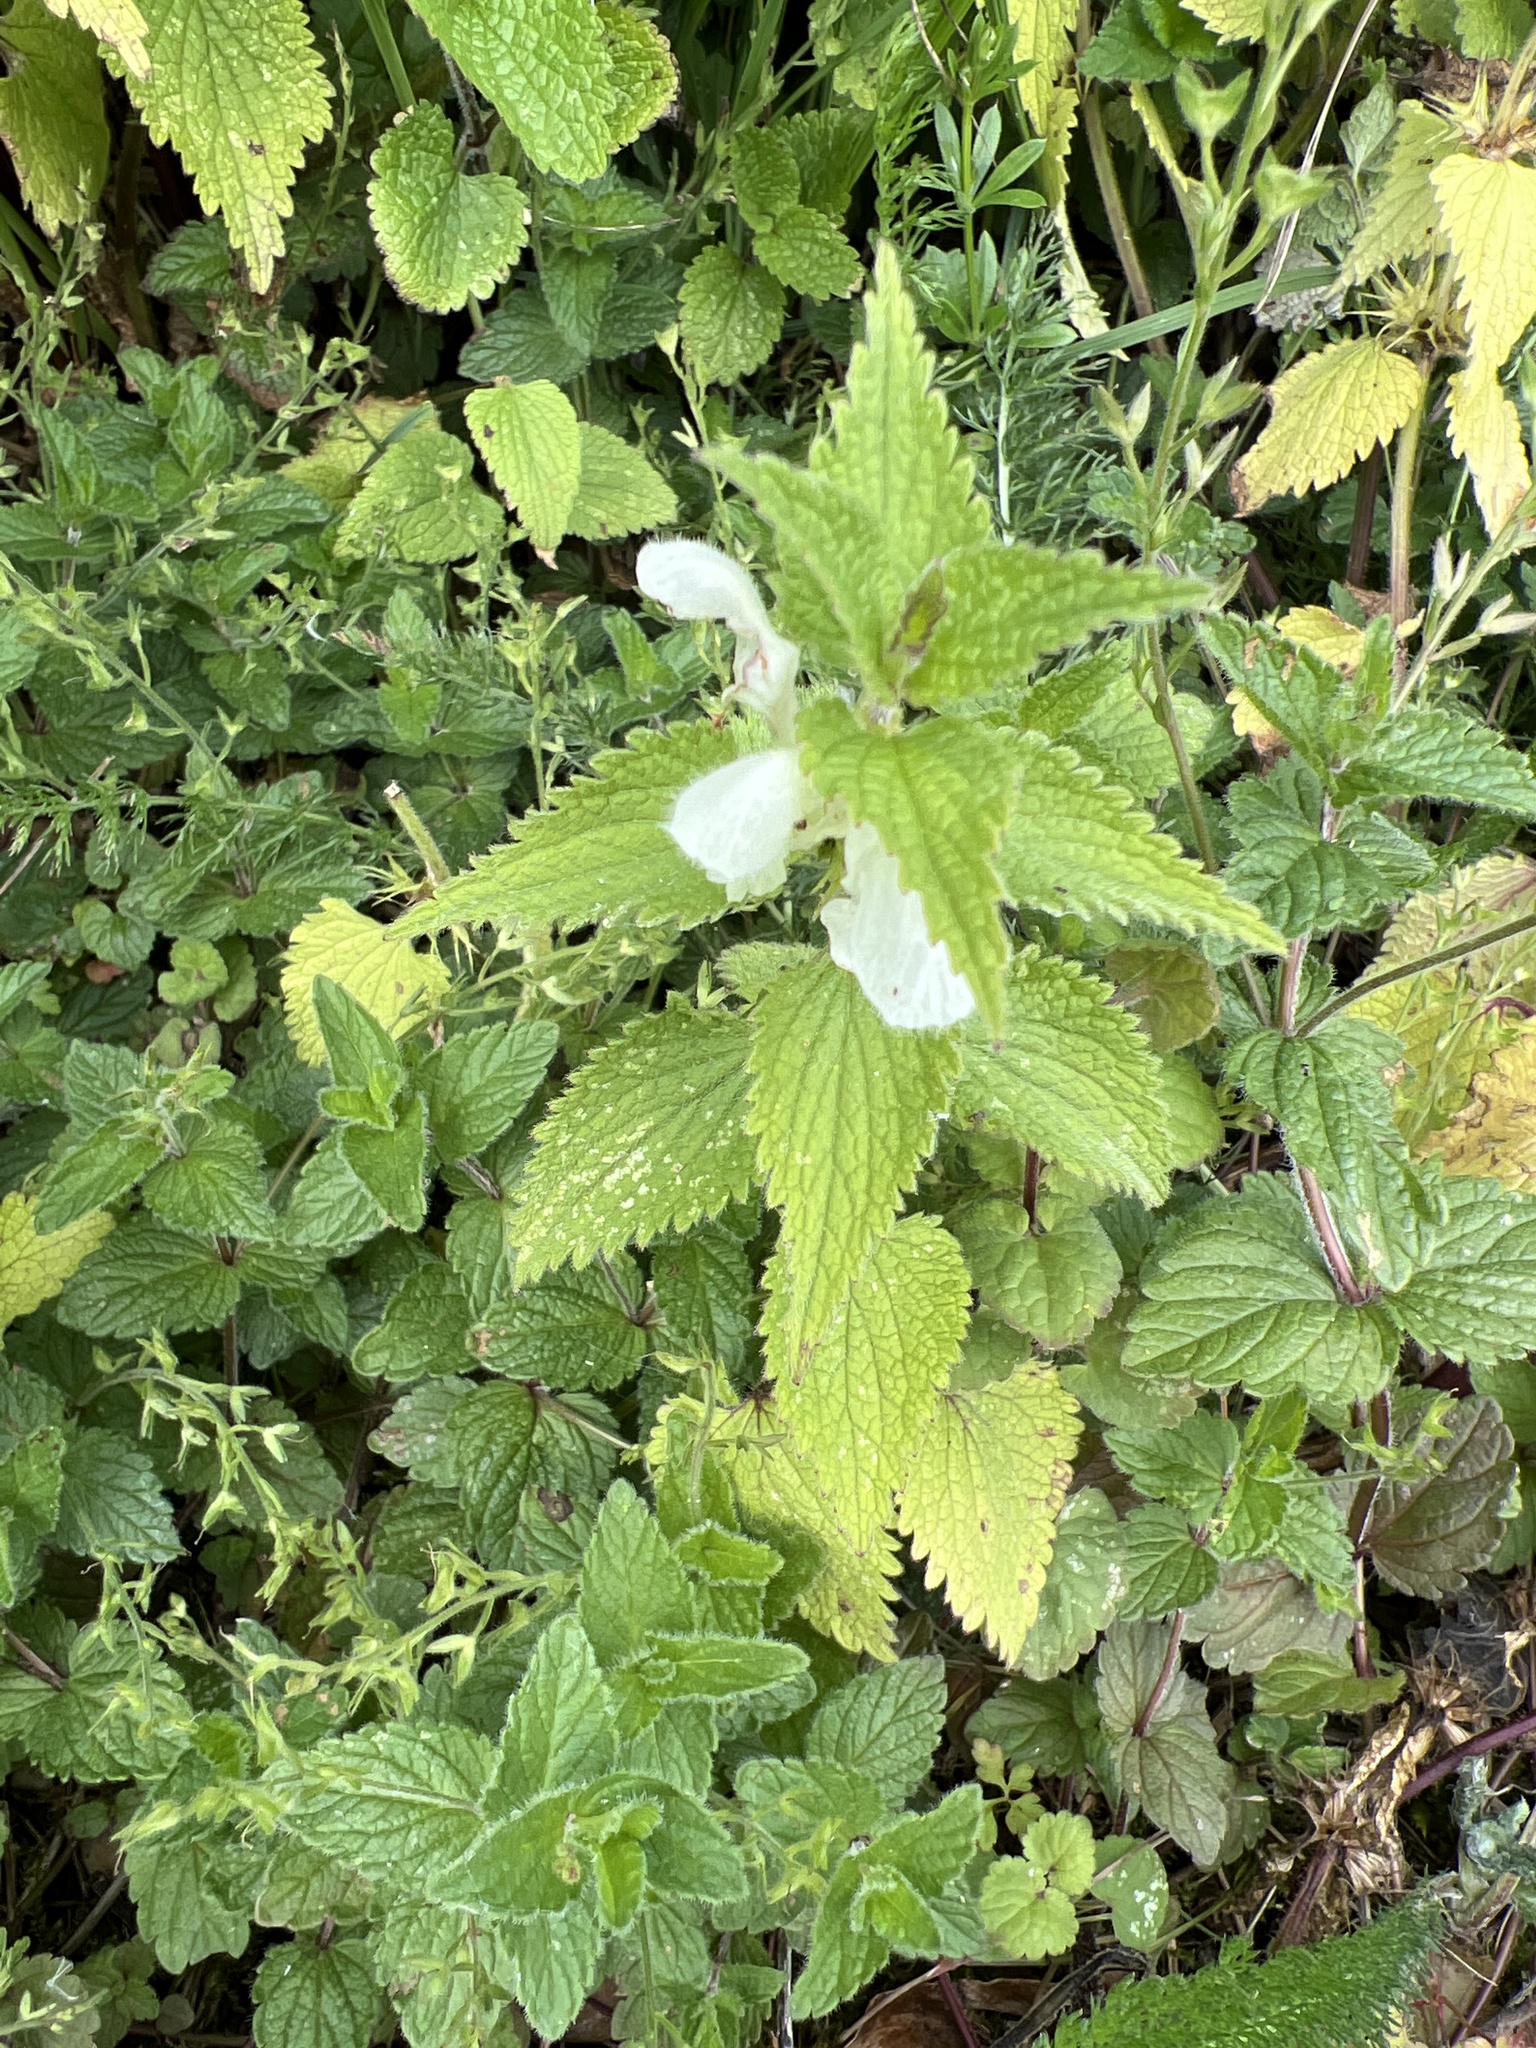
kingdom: Plantae
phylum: Tracheophyta
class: Magnoliopsida
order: Lamiales
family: Lamiaceae
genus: Lamium
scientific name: Lamium album
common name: White dead-nettle
